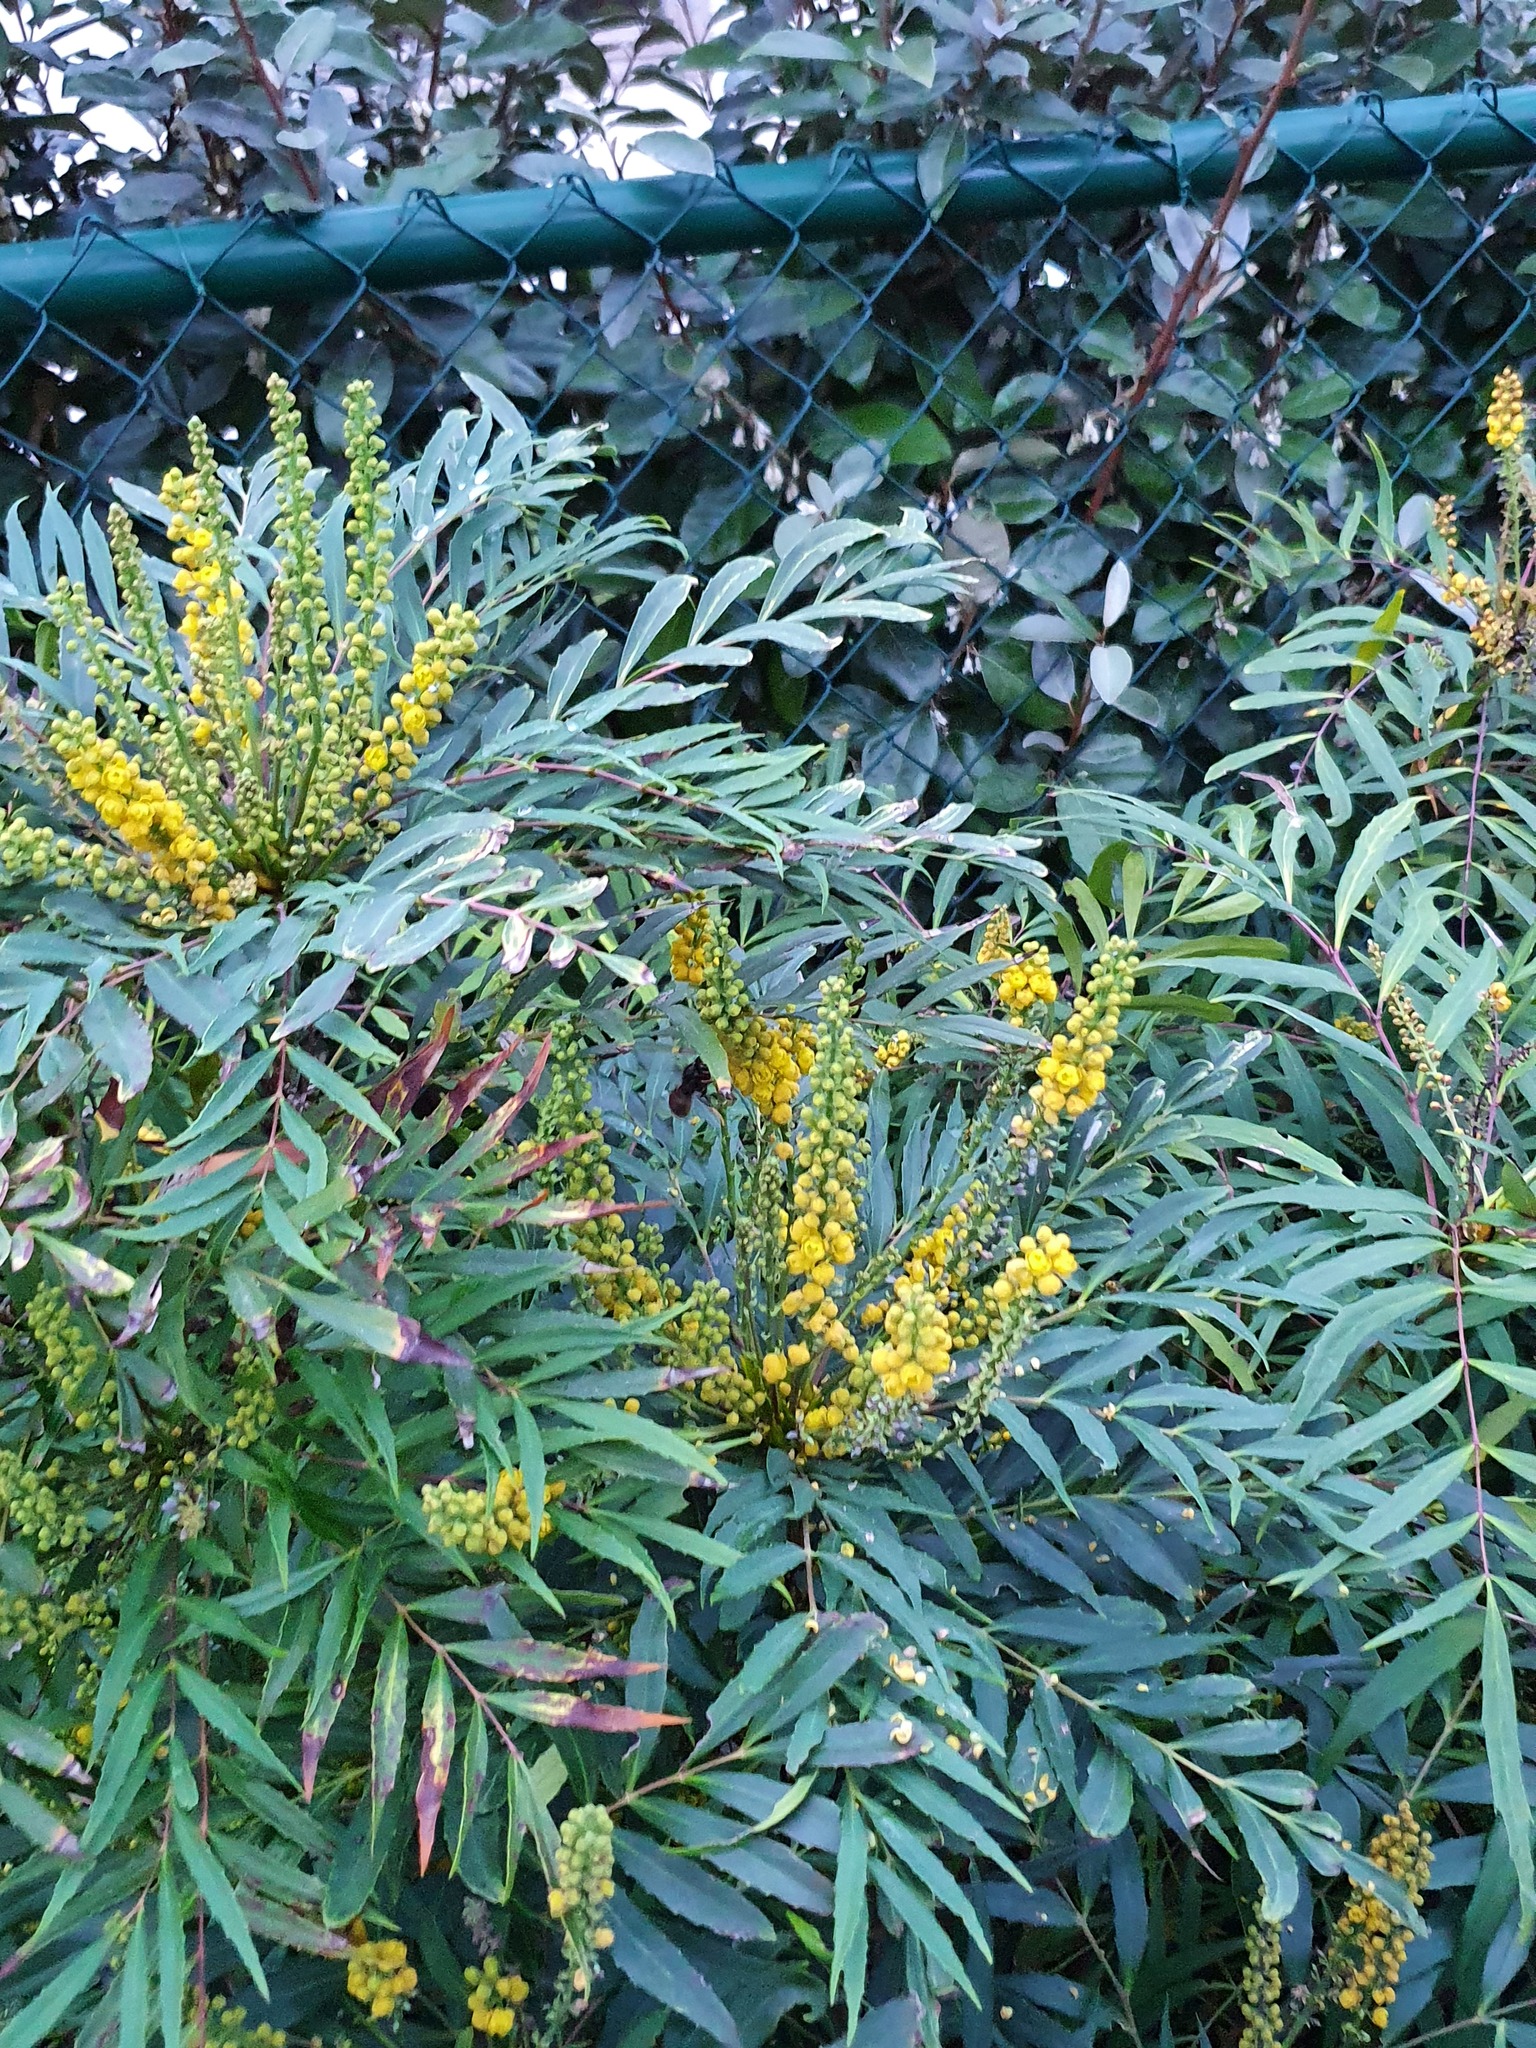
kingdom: Animalia
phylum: Arthropoda
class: Insecta
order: Hymenoptera
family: Vespidae
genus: Vespa
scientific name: Vespa velutina
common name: Asian hornet
